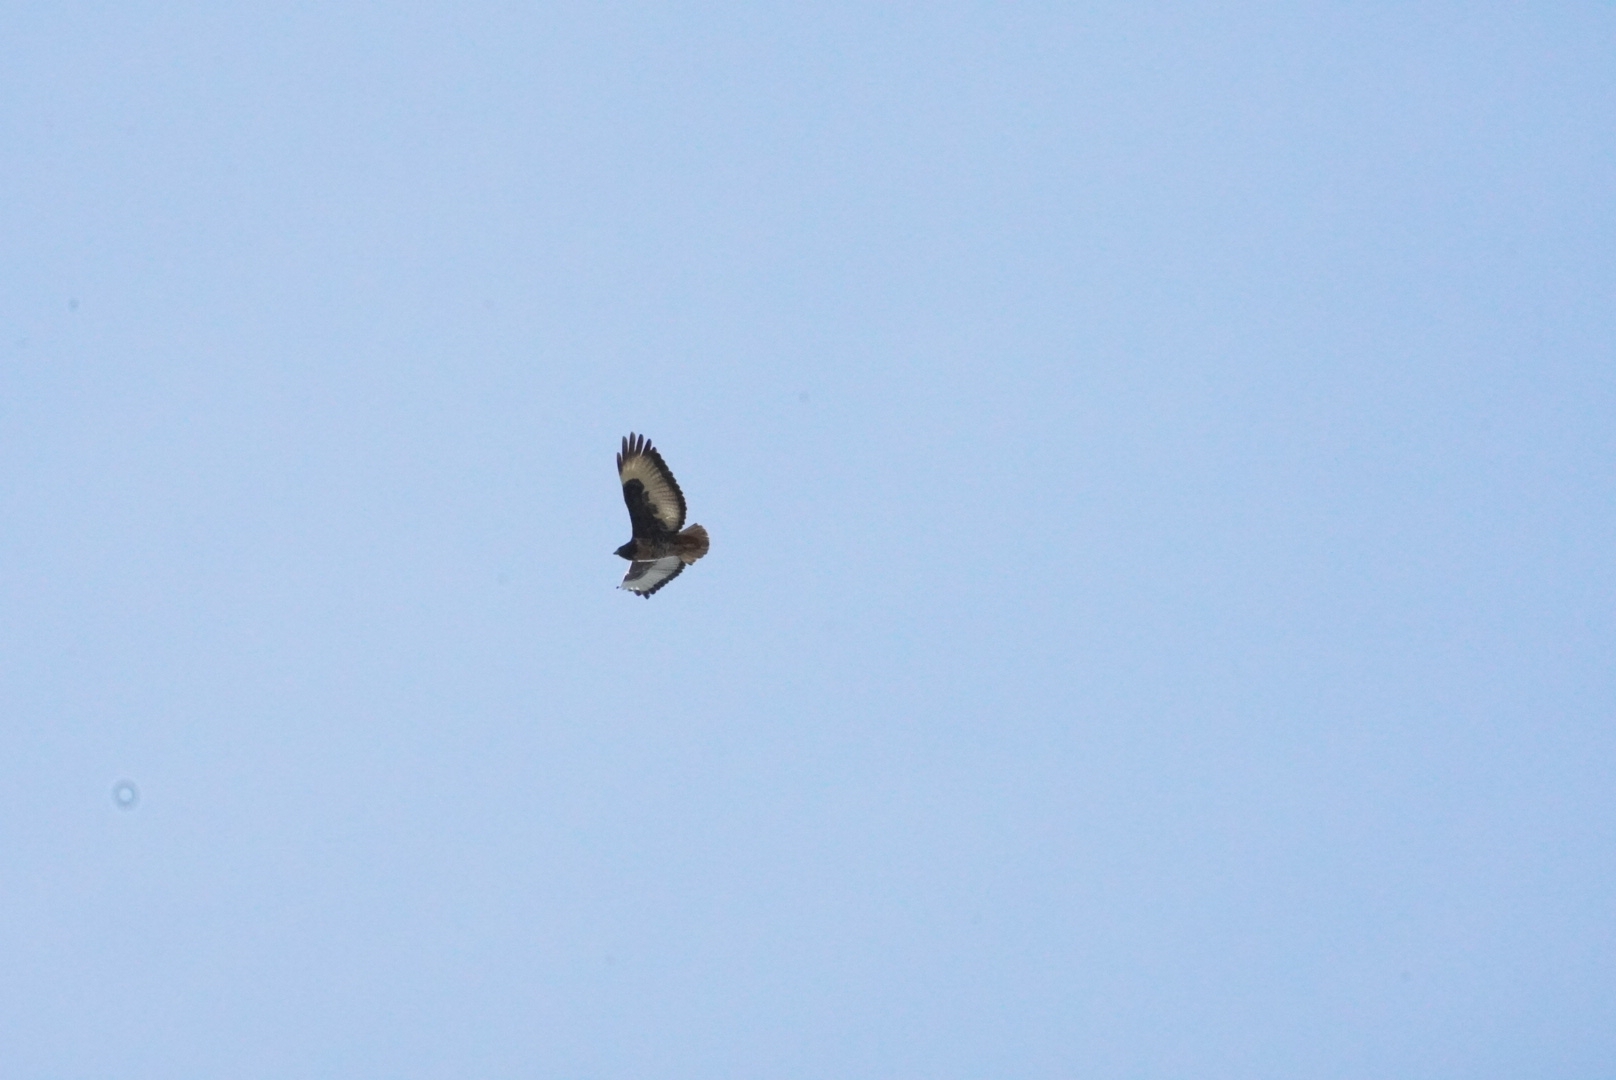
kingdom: Animalia
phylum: Chordata
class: Aves
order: Accipitriformes
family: Accipitridae
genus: Buteo
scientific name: Buteo rufofuscus
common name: Jackal buzzard
